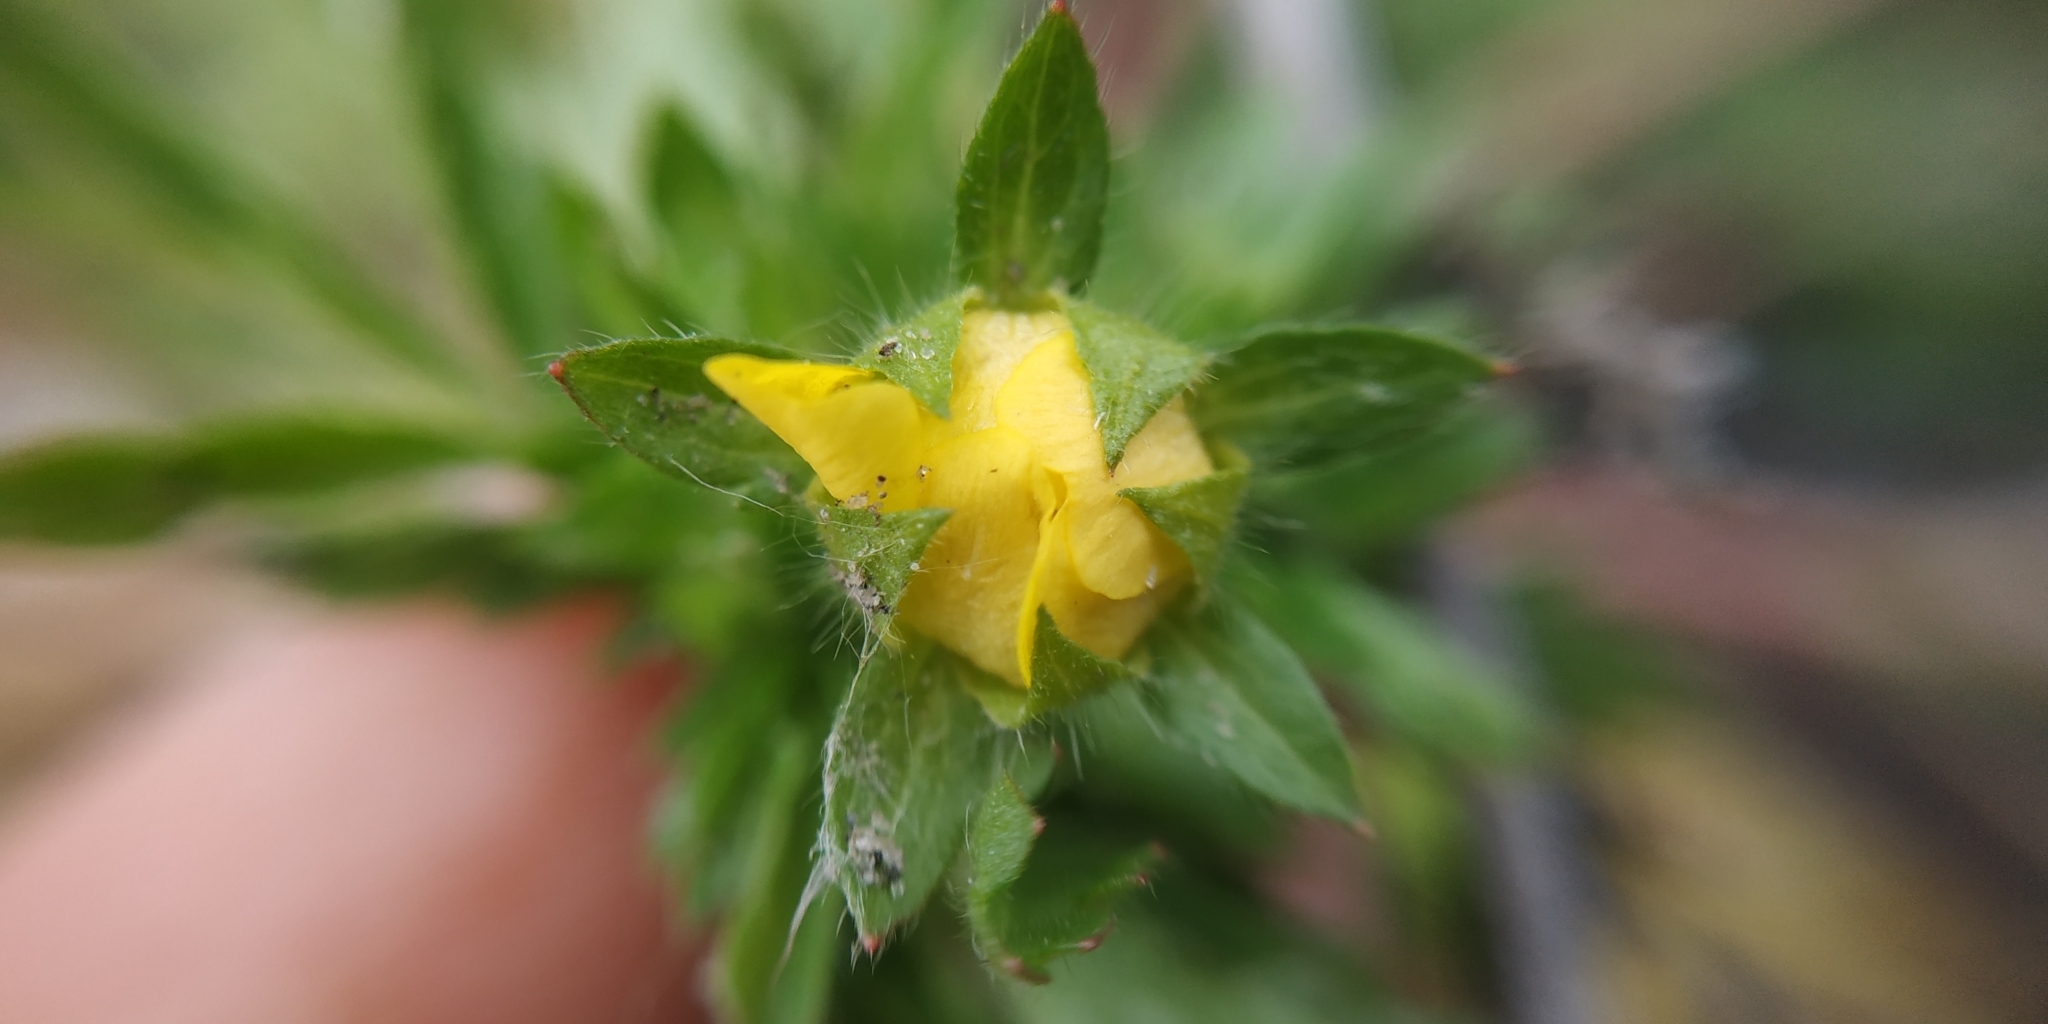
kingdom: Plantae
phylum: Tracheophyta
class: Magnoliopsida
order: Rosales
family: Rosaceae
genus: Potentilla
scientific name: Potentilla supina
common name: Prostrate cinquefoil
